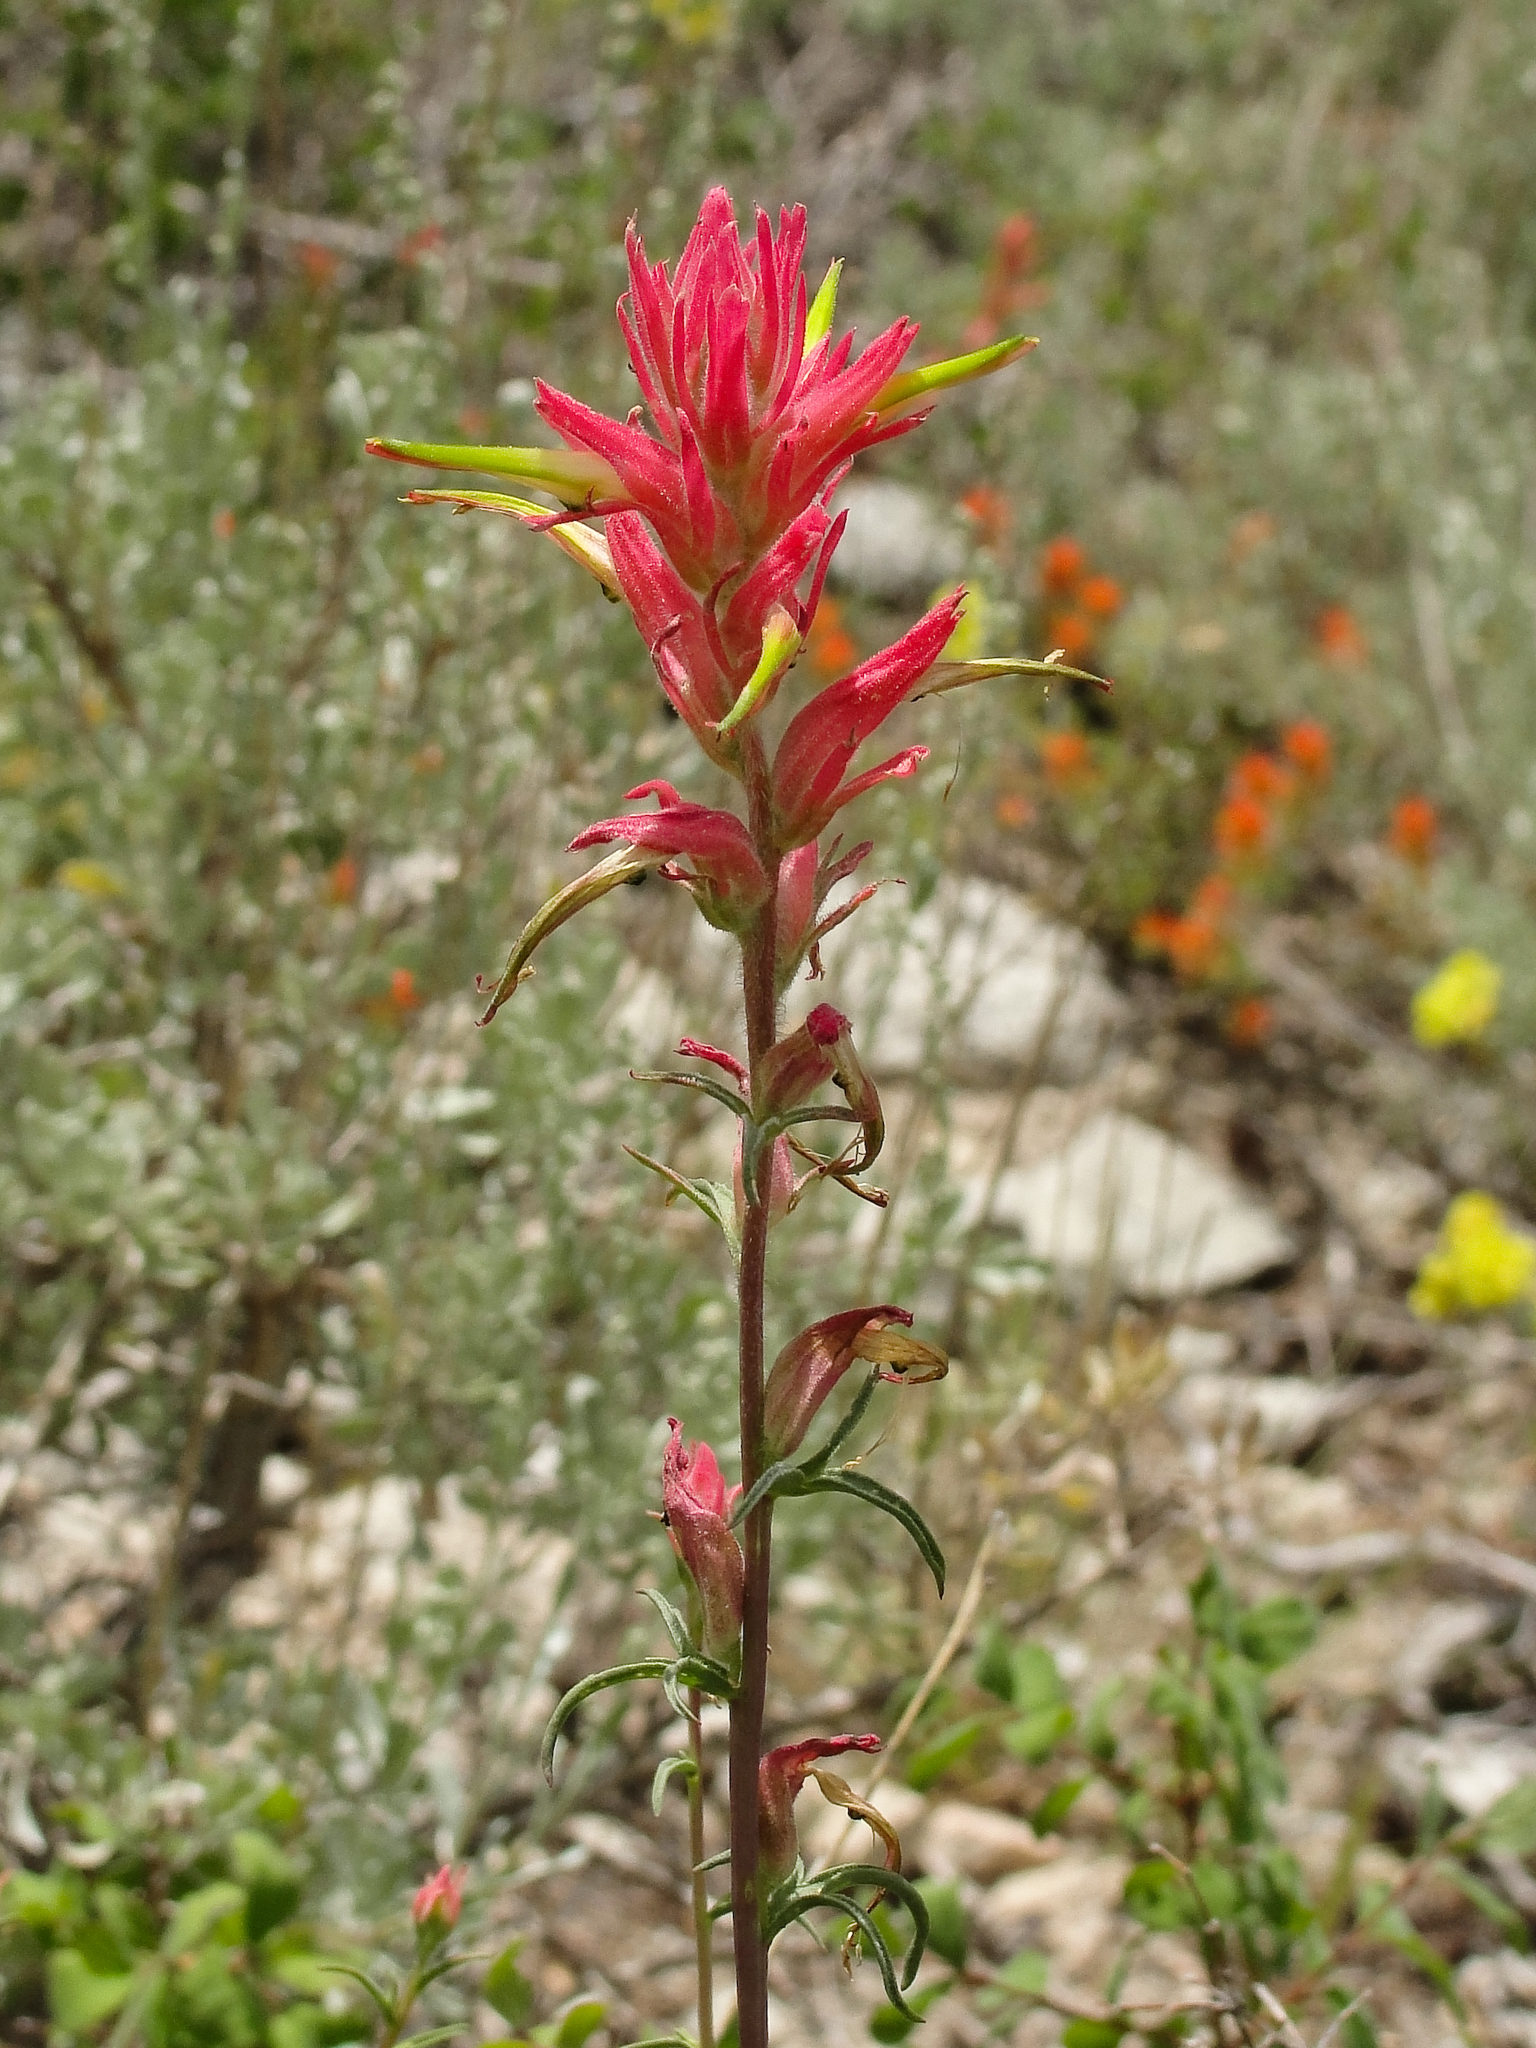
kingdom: Plantae
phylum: Tracheophyta
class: Magnoliopsida
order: Lamiales
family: Orobanchaceae
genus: Castilleja
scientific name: Castilleja linariifolia
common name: Wyoming paintbrush
